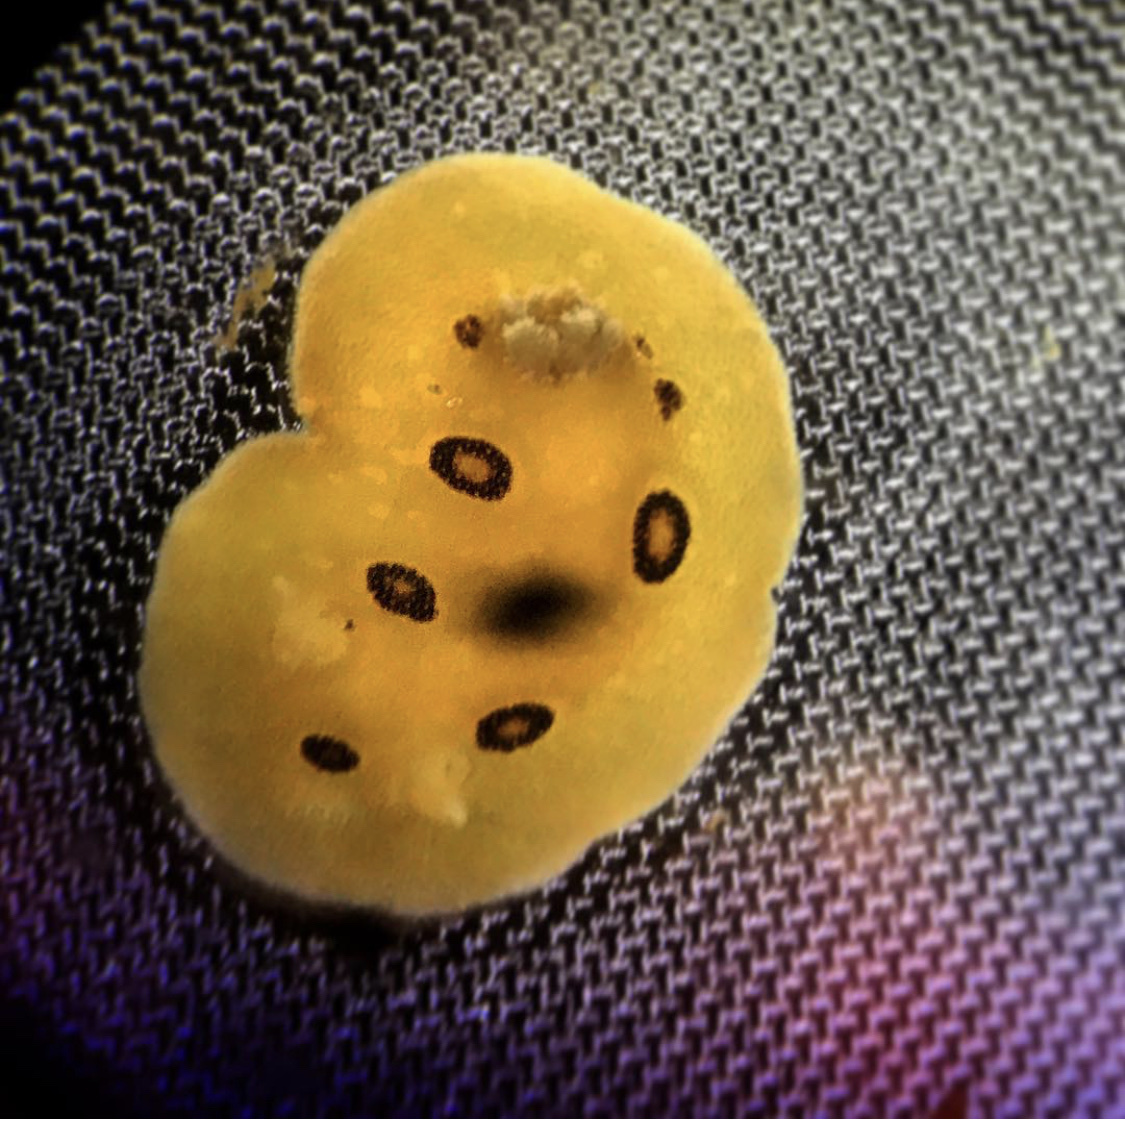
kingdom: Animalia
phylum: Mollusca
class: Gastropoda
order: Nudibranchia
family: Discodorididae
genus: Diaulula
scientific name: Diaulula sandiegensis
